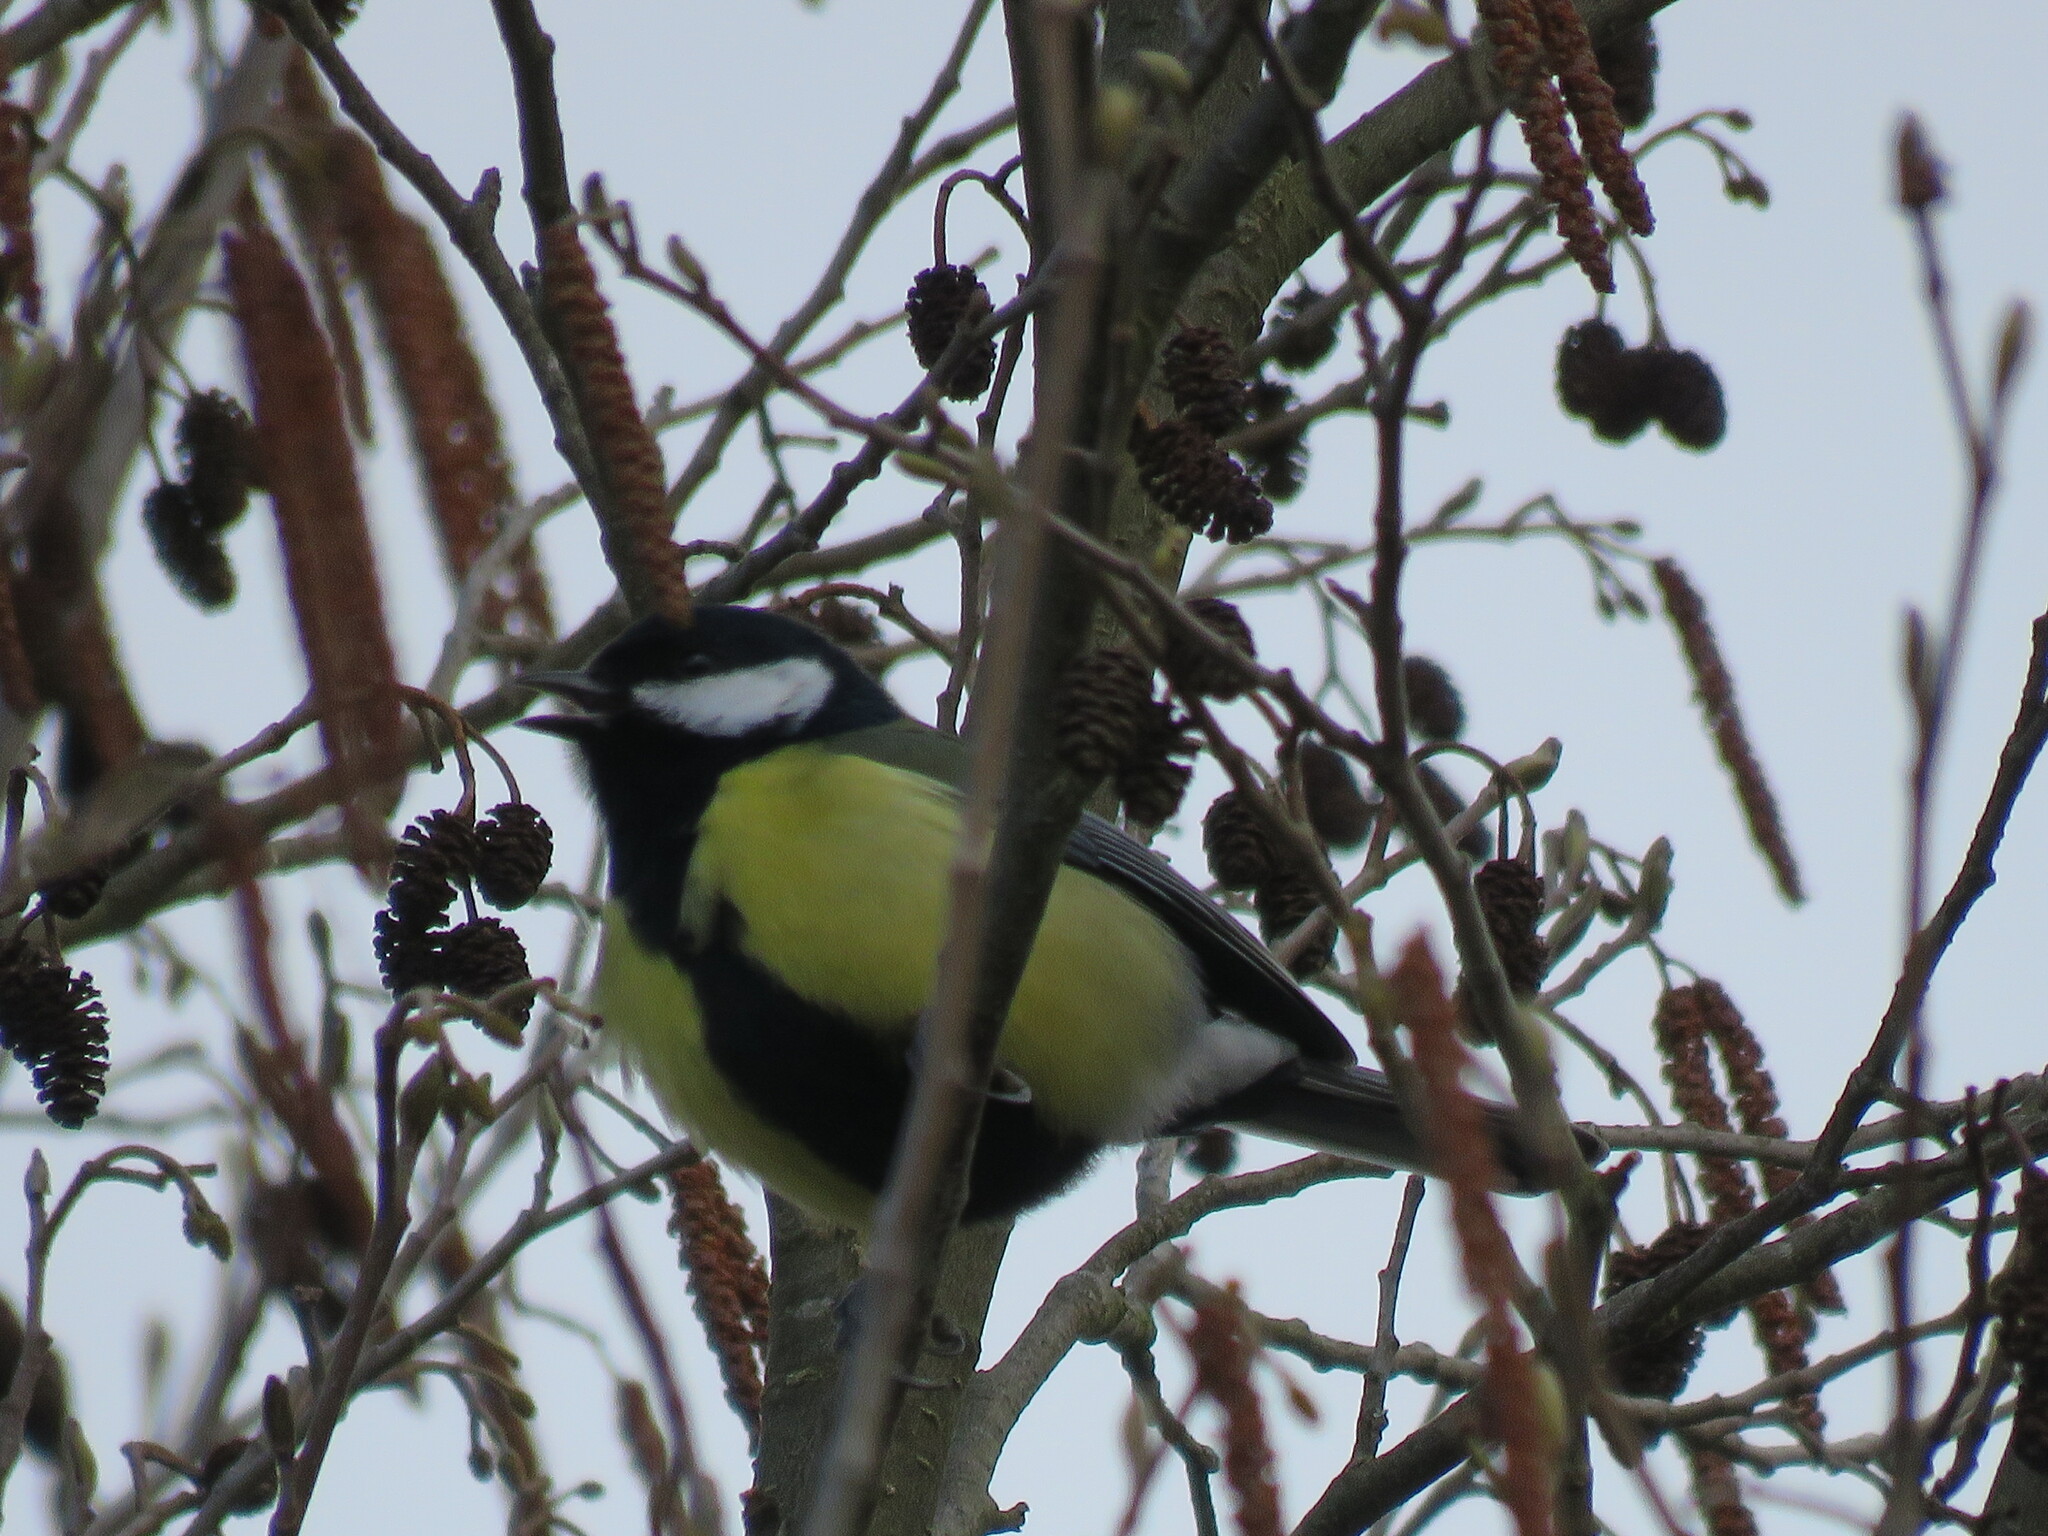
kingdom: Animalia
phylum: Chordata
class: Aves
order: Passeriformes
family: Paridae
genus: Parus
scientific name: Parus major
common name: Great tit
